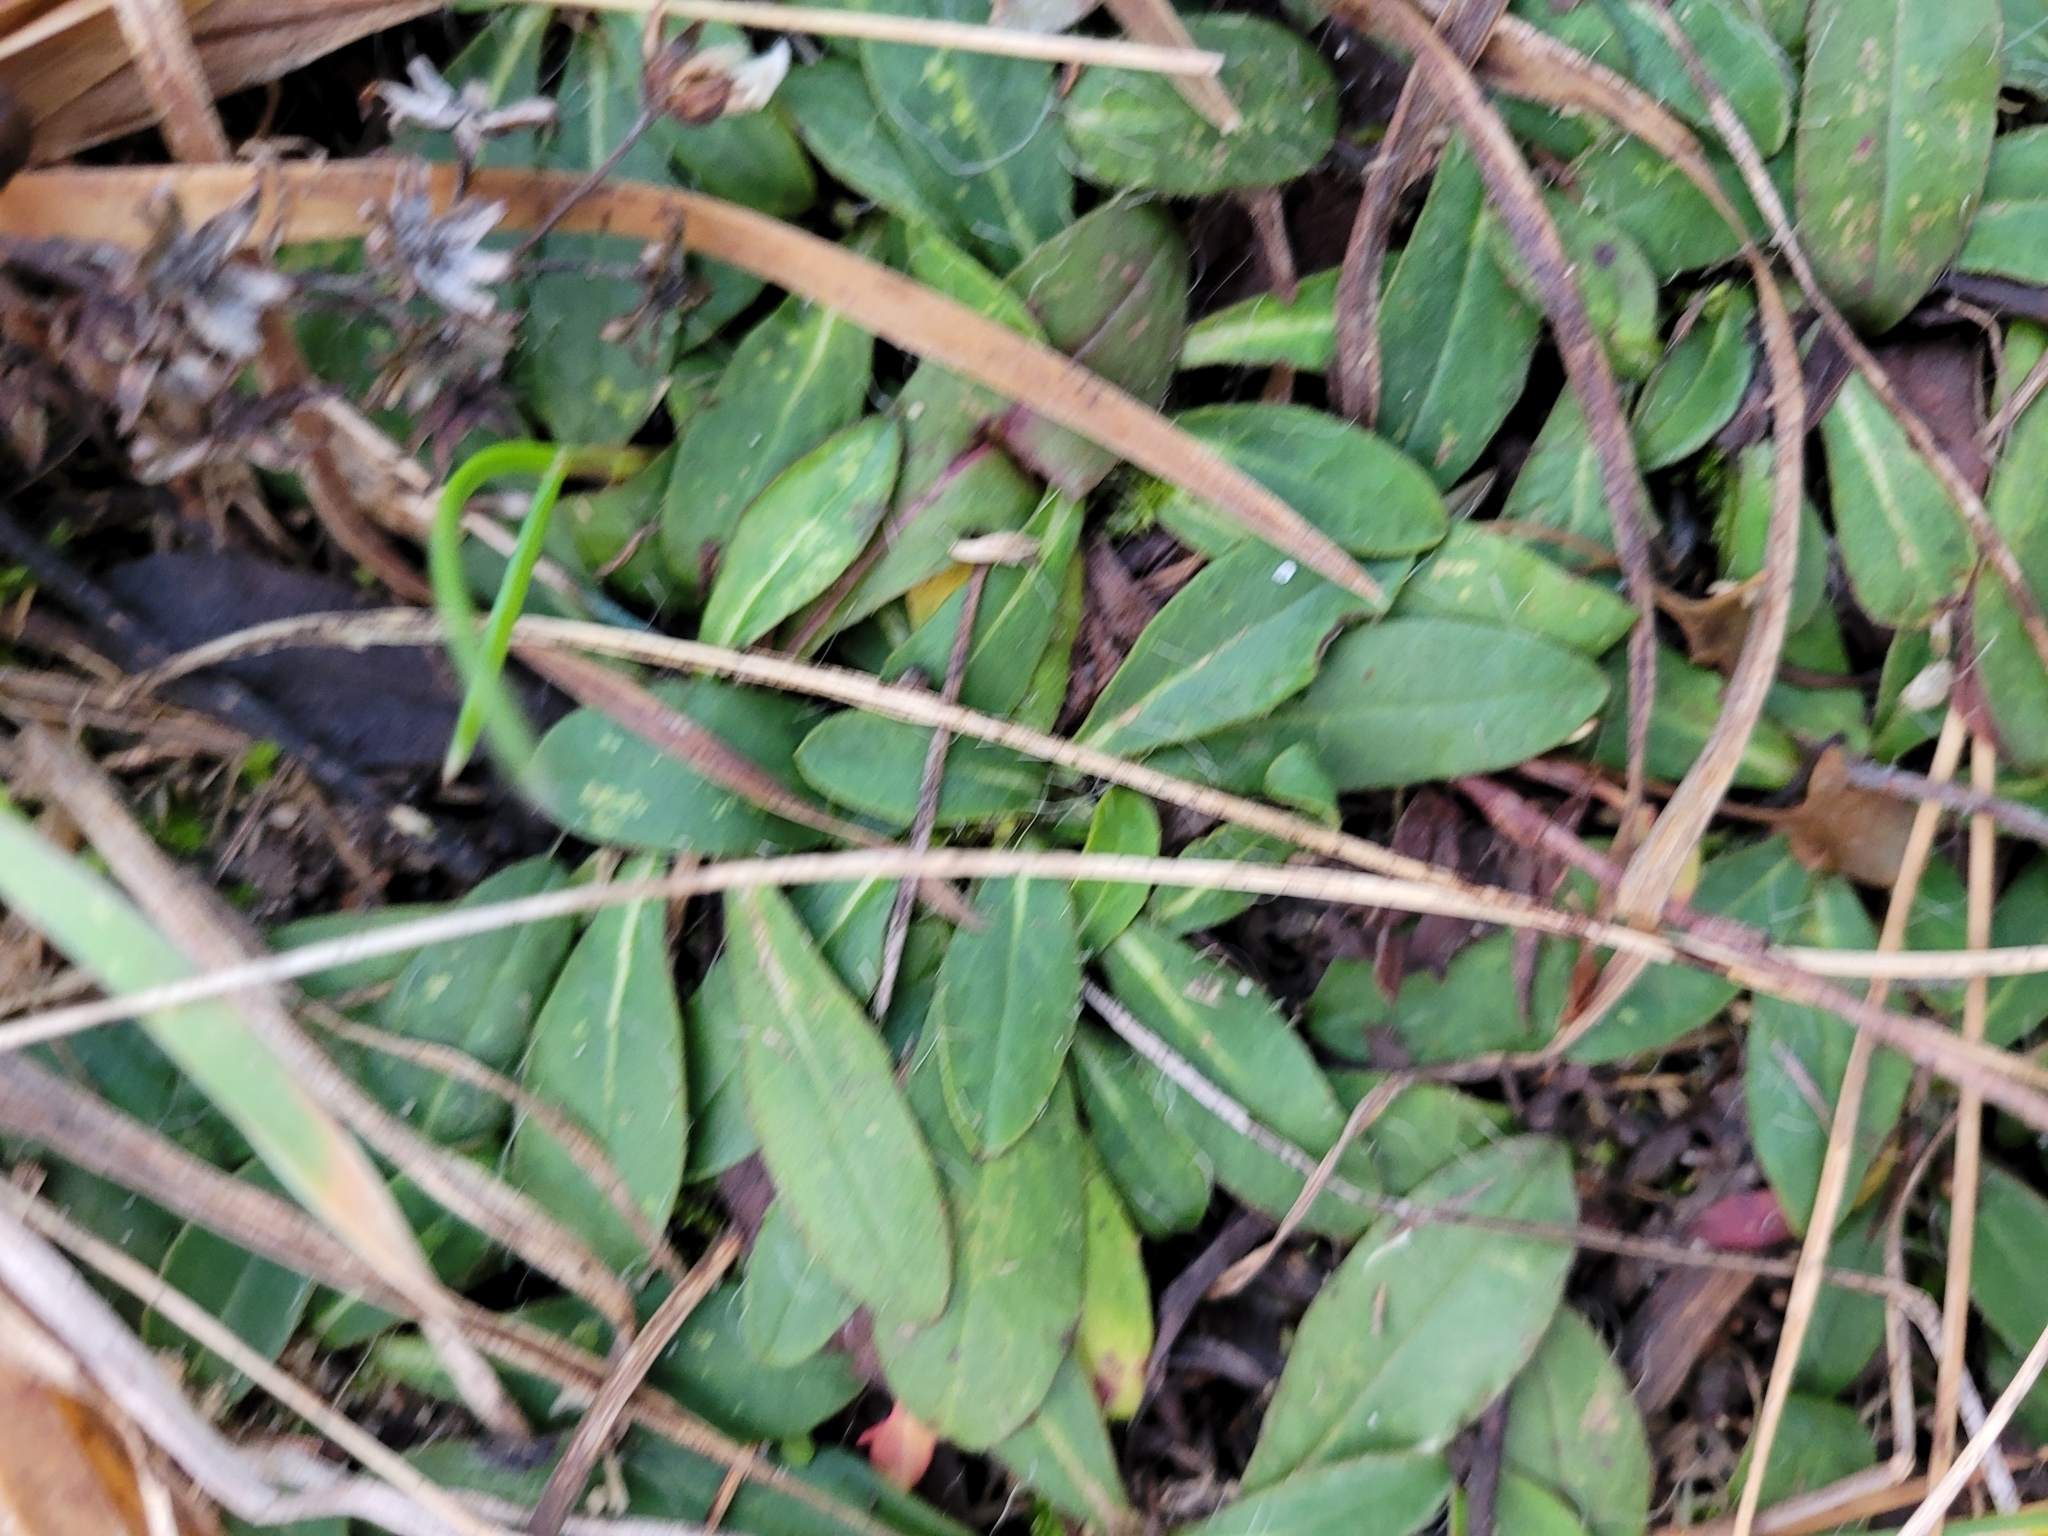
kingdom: Plantae
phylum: Tracheophyta
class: Magnoliopsida
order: Asterales
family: Asteraceae
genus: Pilosella
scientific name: Pilosella officinarum
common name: Mouse-ear hawkweed
